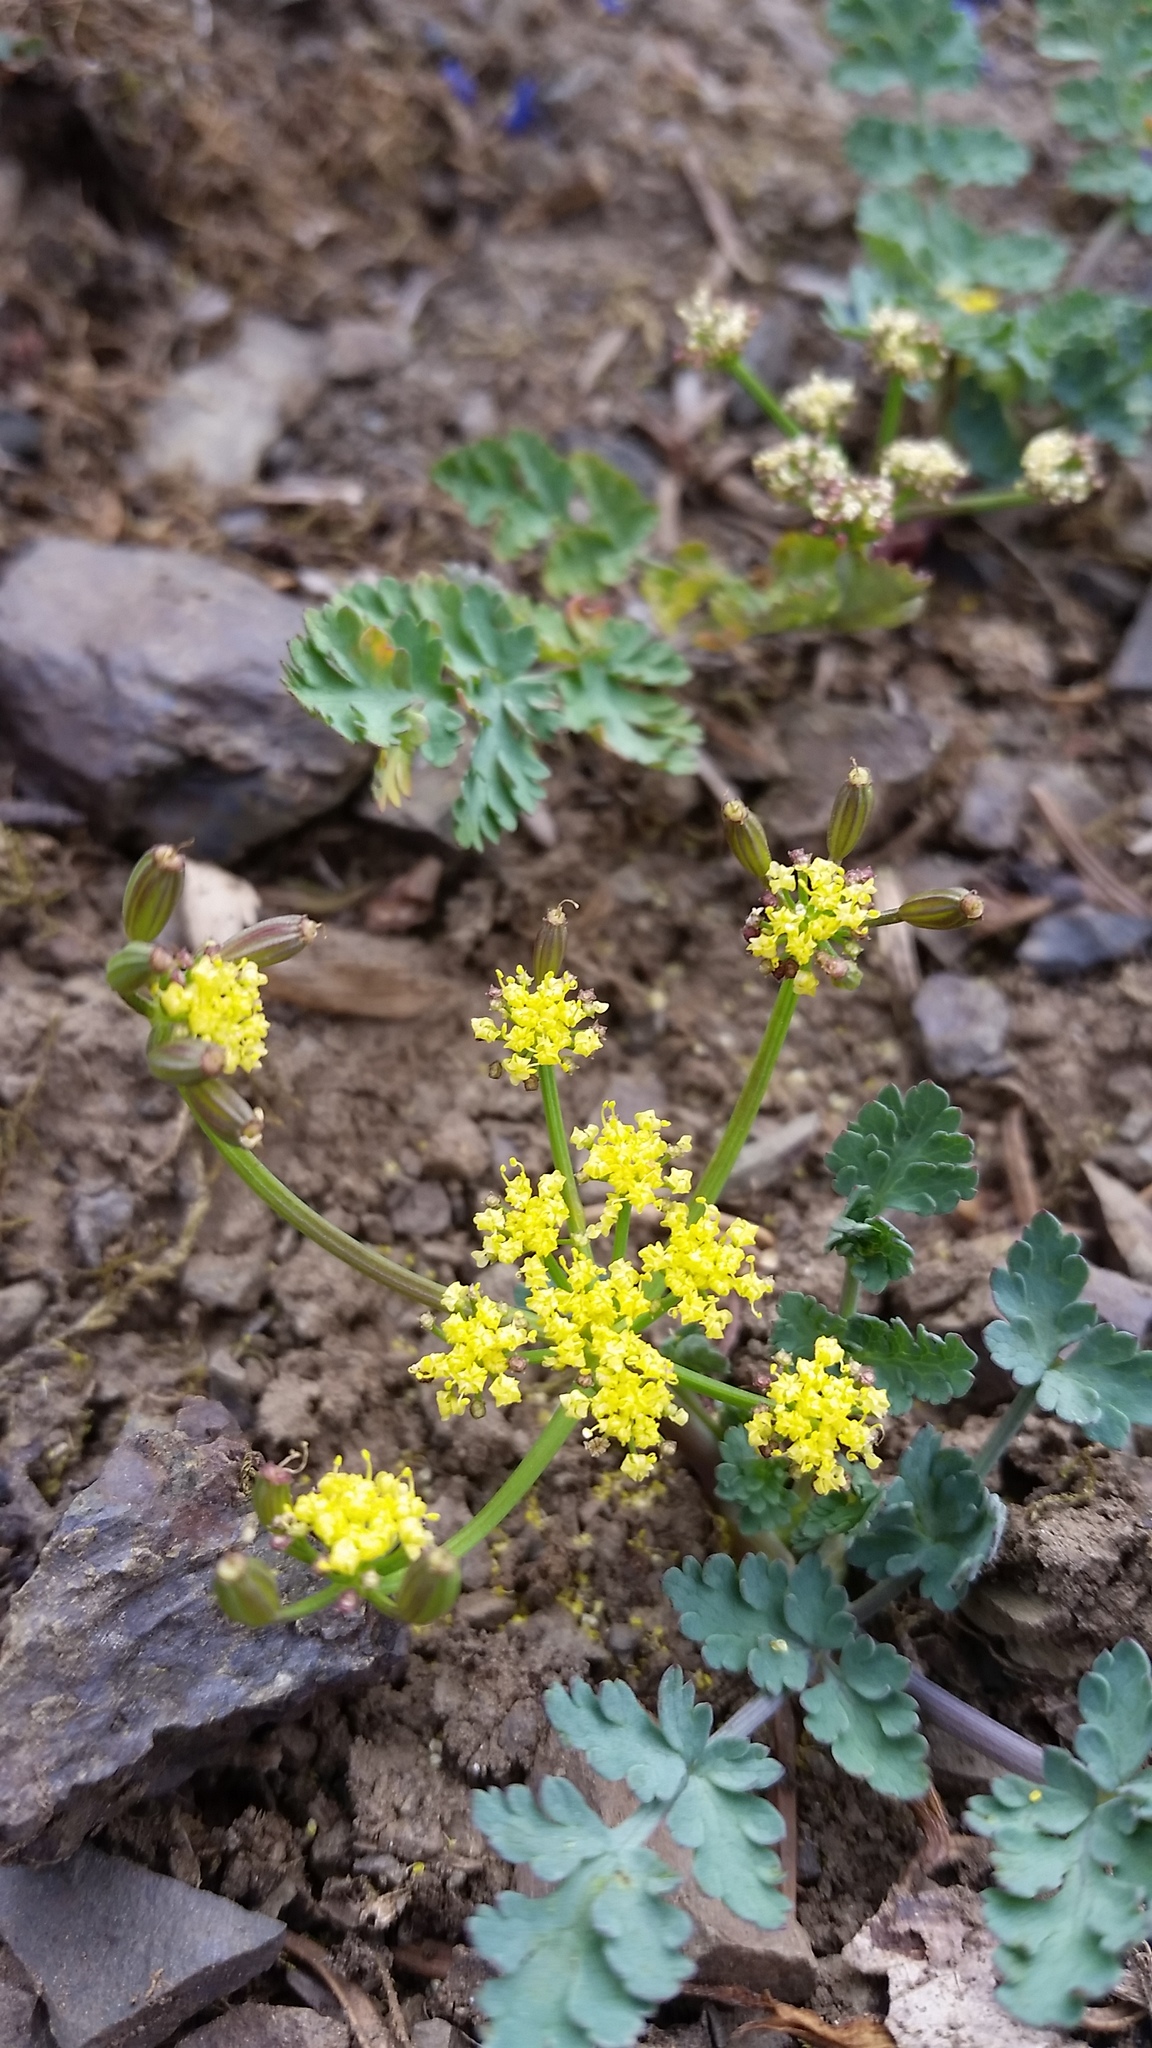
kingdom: Plantae
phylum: Tracheophyta
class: Magnoliopsida
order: Apiales
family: Apiaceae
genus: Lomatium
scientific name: Lomatium martindalei
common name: Cascade desert-parsley
